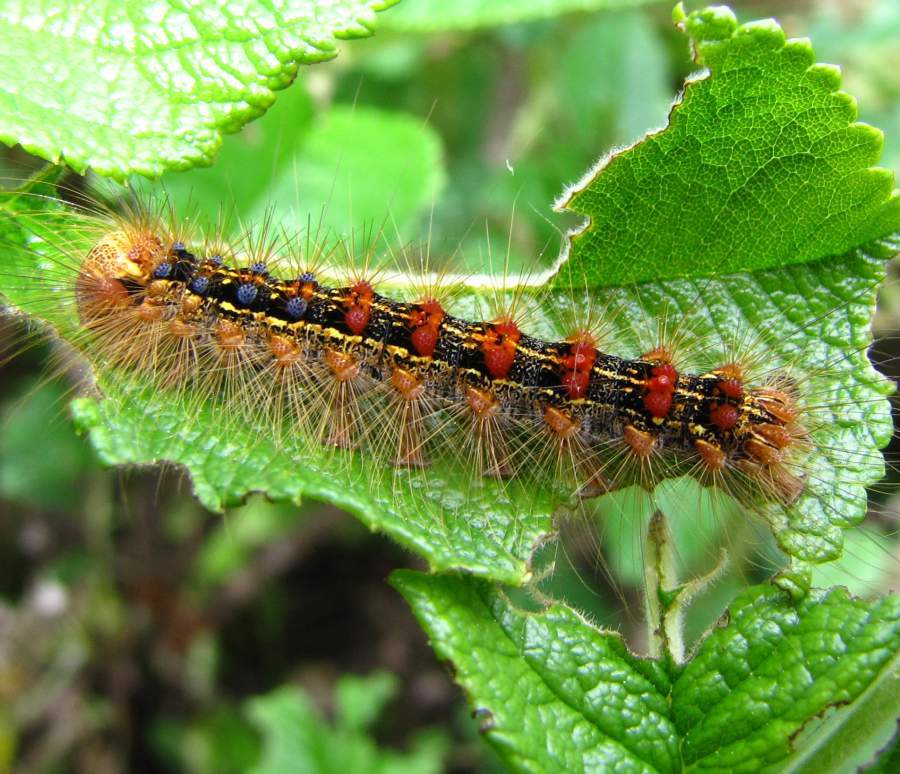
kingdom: Animalia
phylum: Arthropoda
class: Insecta
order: Lepidoptera
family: Erebidae
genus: Lymantria
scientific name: Lymantria dispar
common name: Gypsy moth
